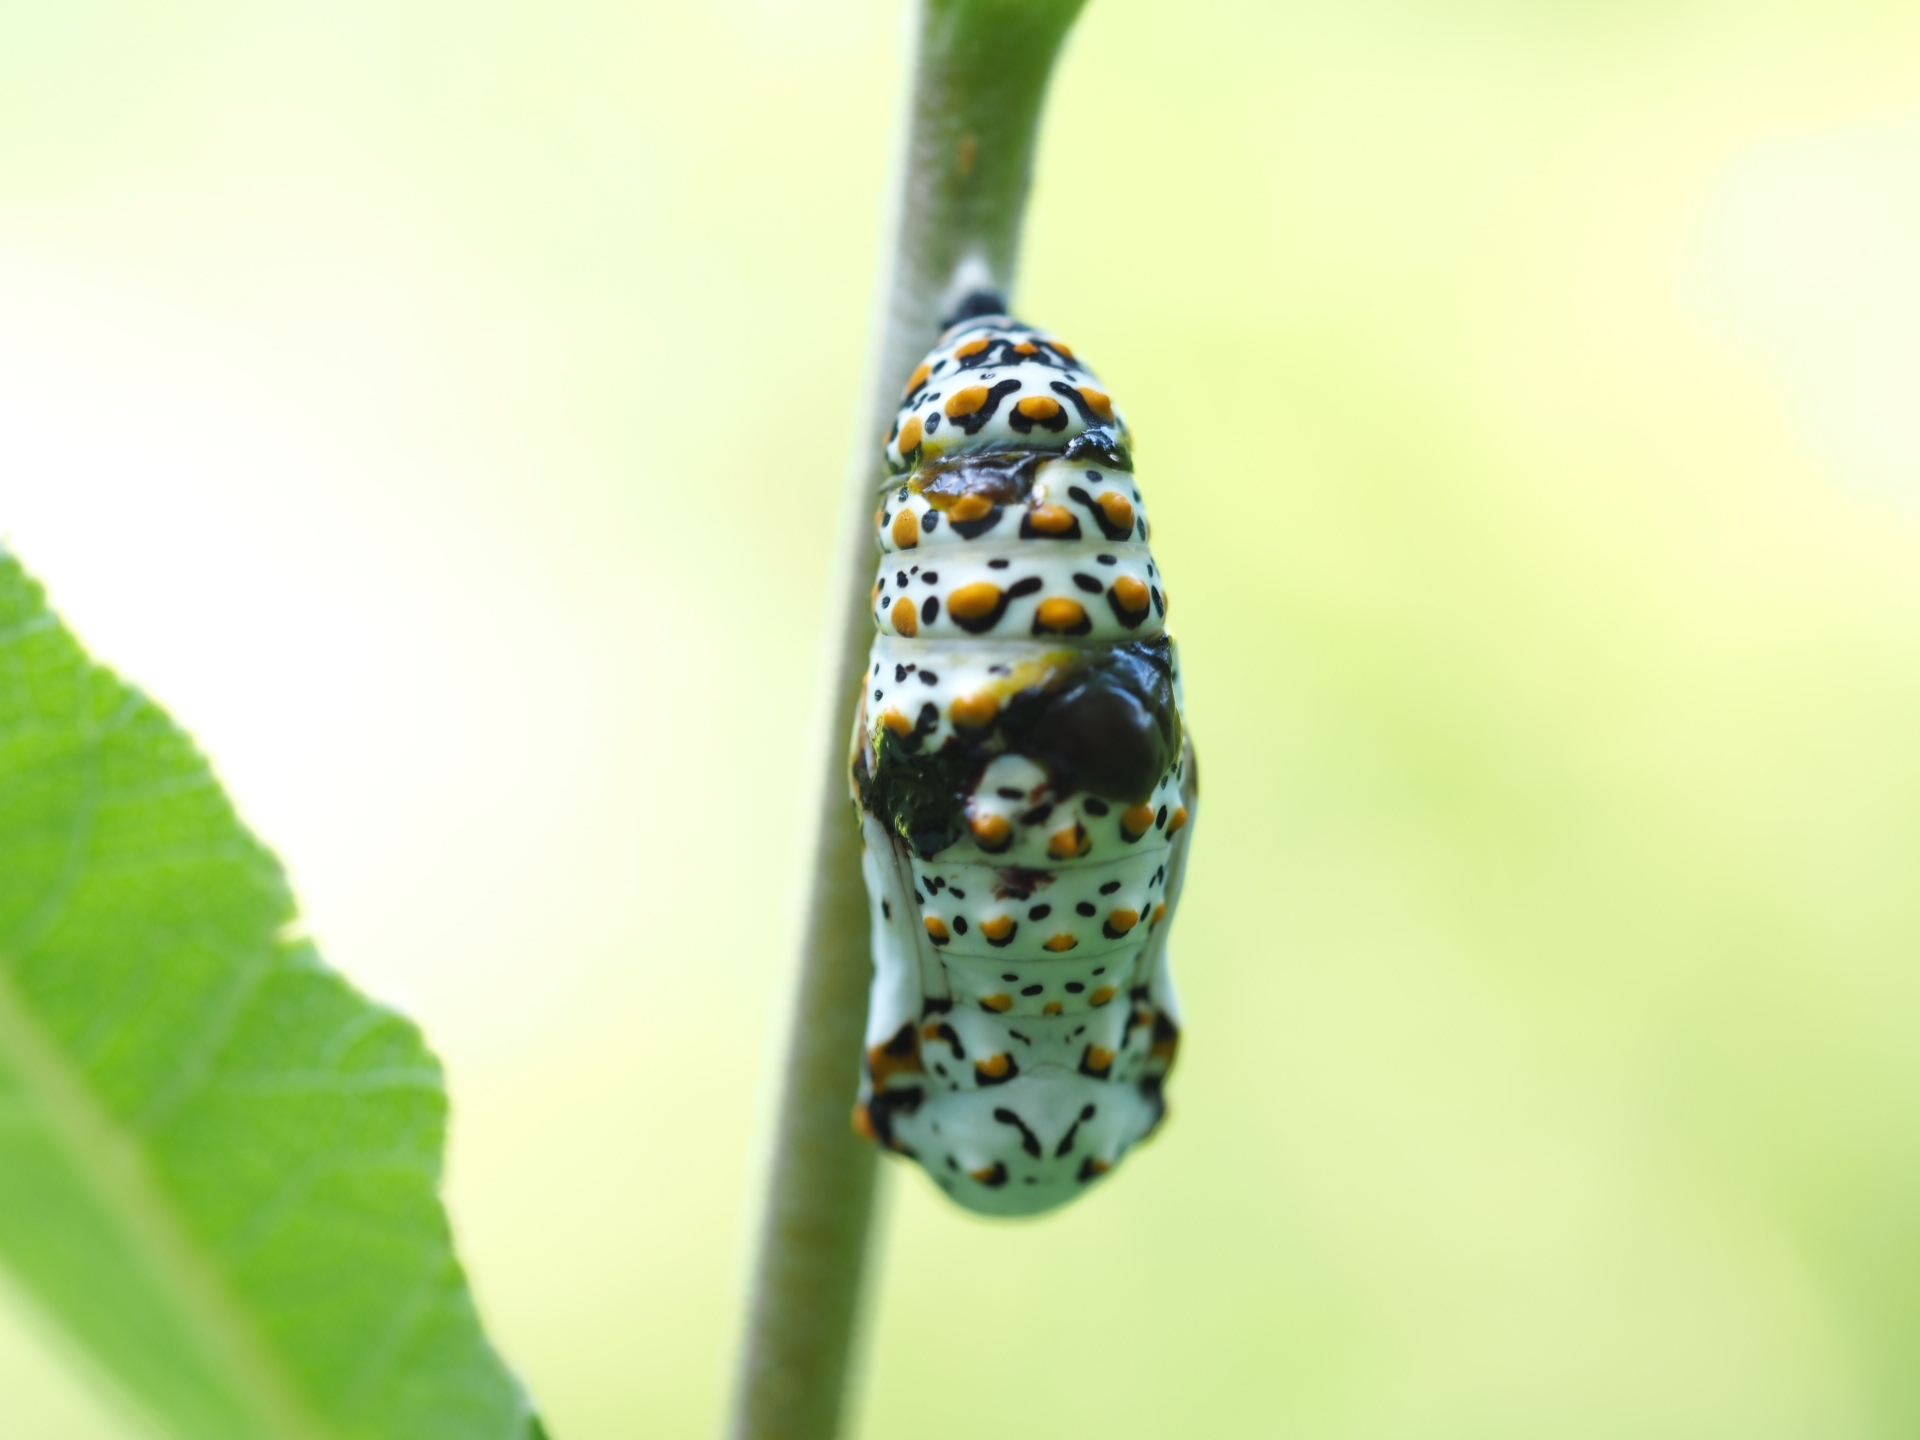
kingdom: Animalia
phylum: Arthropoda
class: Insecta
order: Lepidoptera
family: Nymphalidae
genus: Euphydryas
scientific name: Euphydryas phaeton
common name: Baltimore checkerspot
